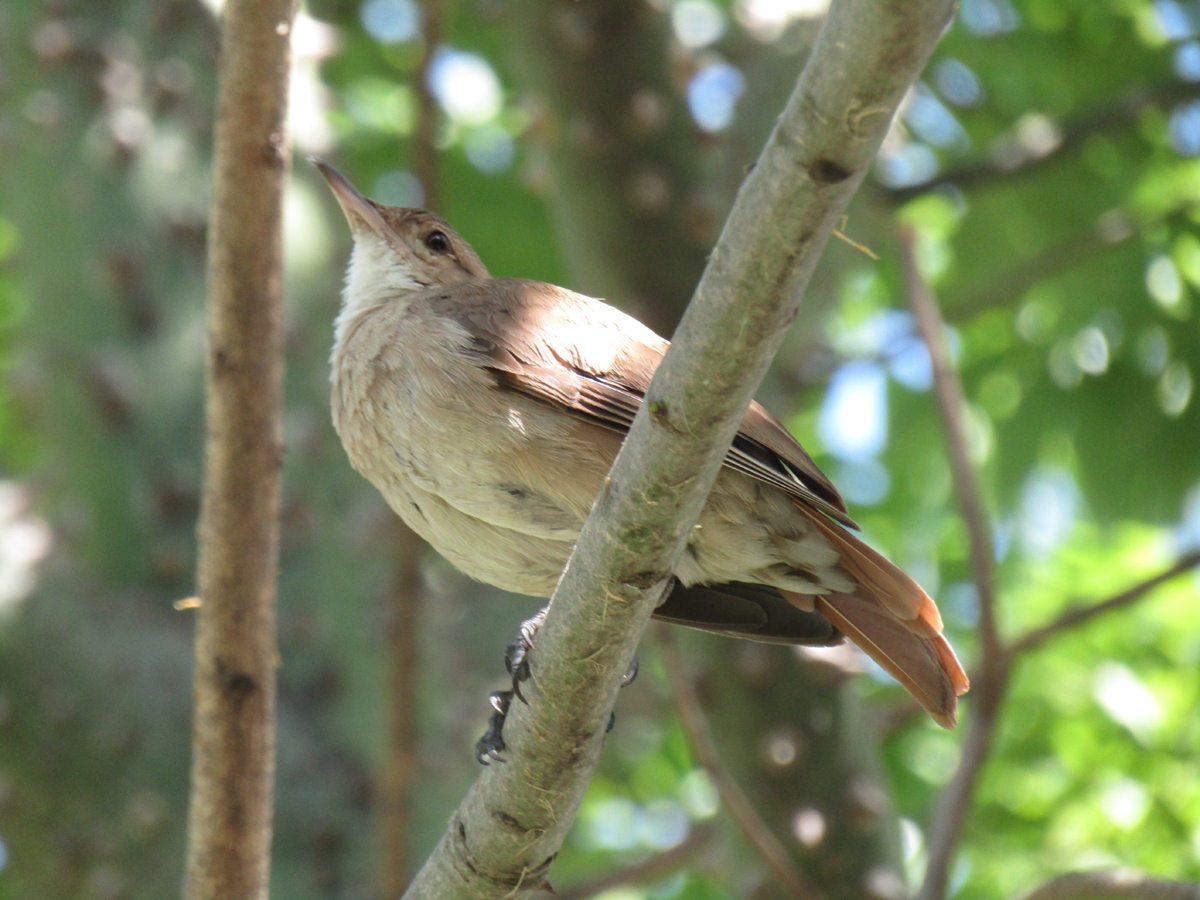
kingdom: Animalia
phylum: Chordata
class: Aves
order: Passeriformes
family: Furnariidae
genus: Furnarius
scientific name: Furnarius rufus
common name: Rufous hornero
